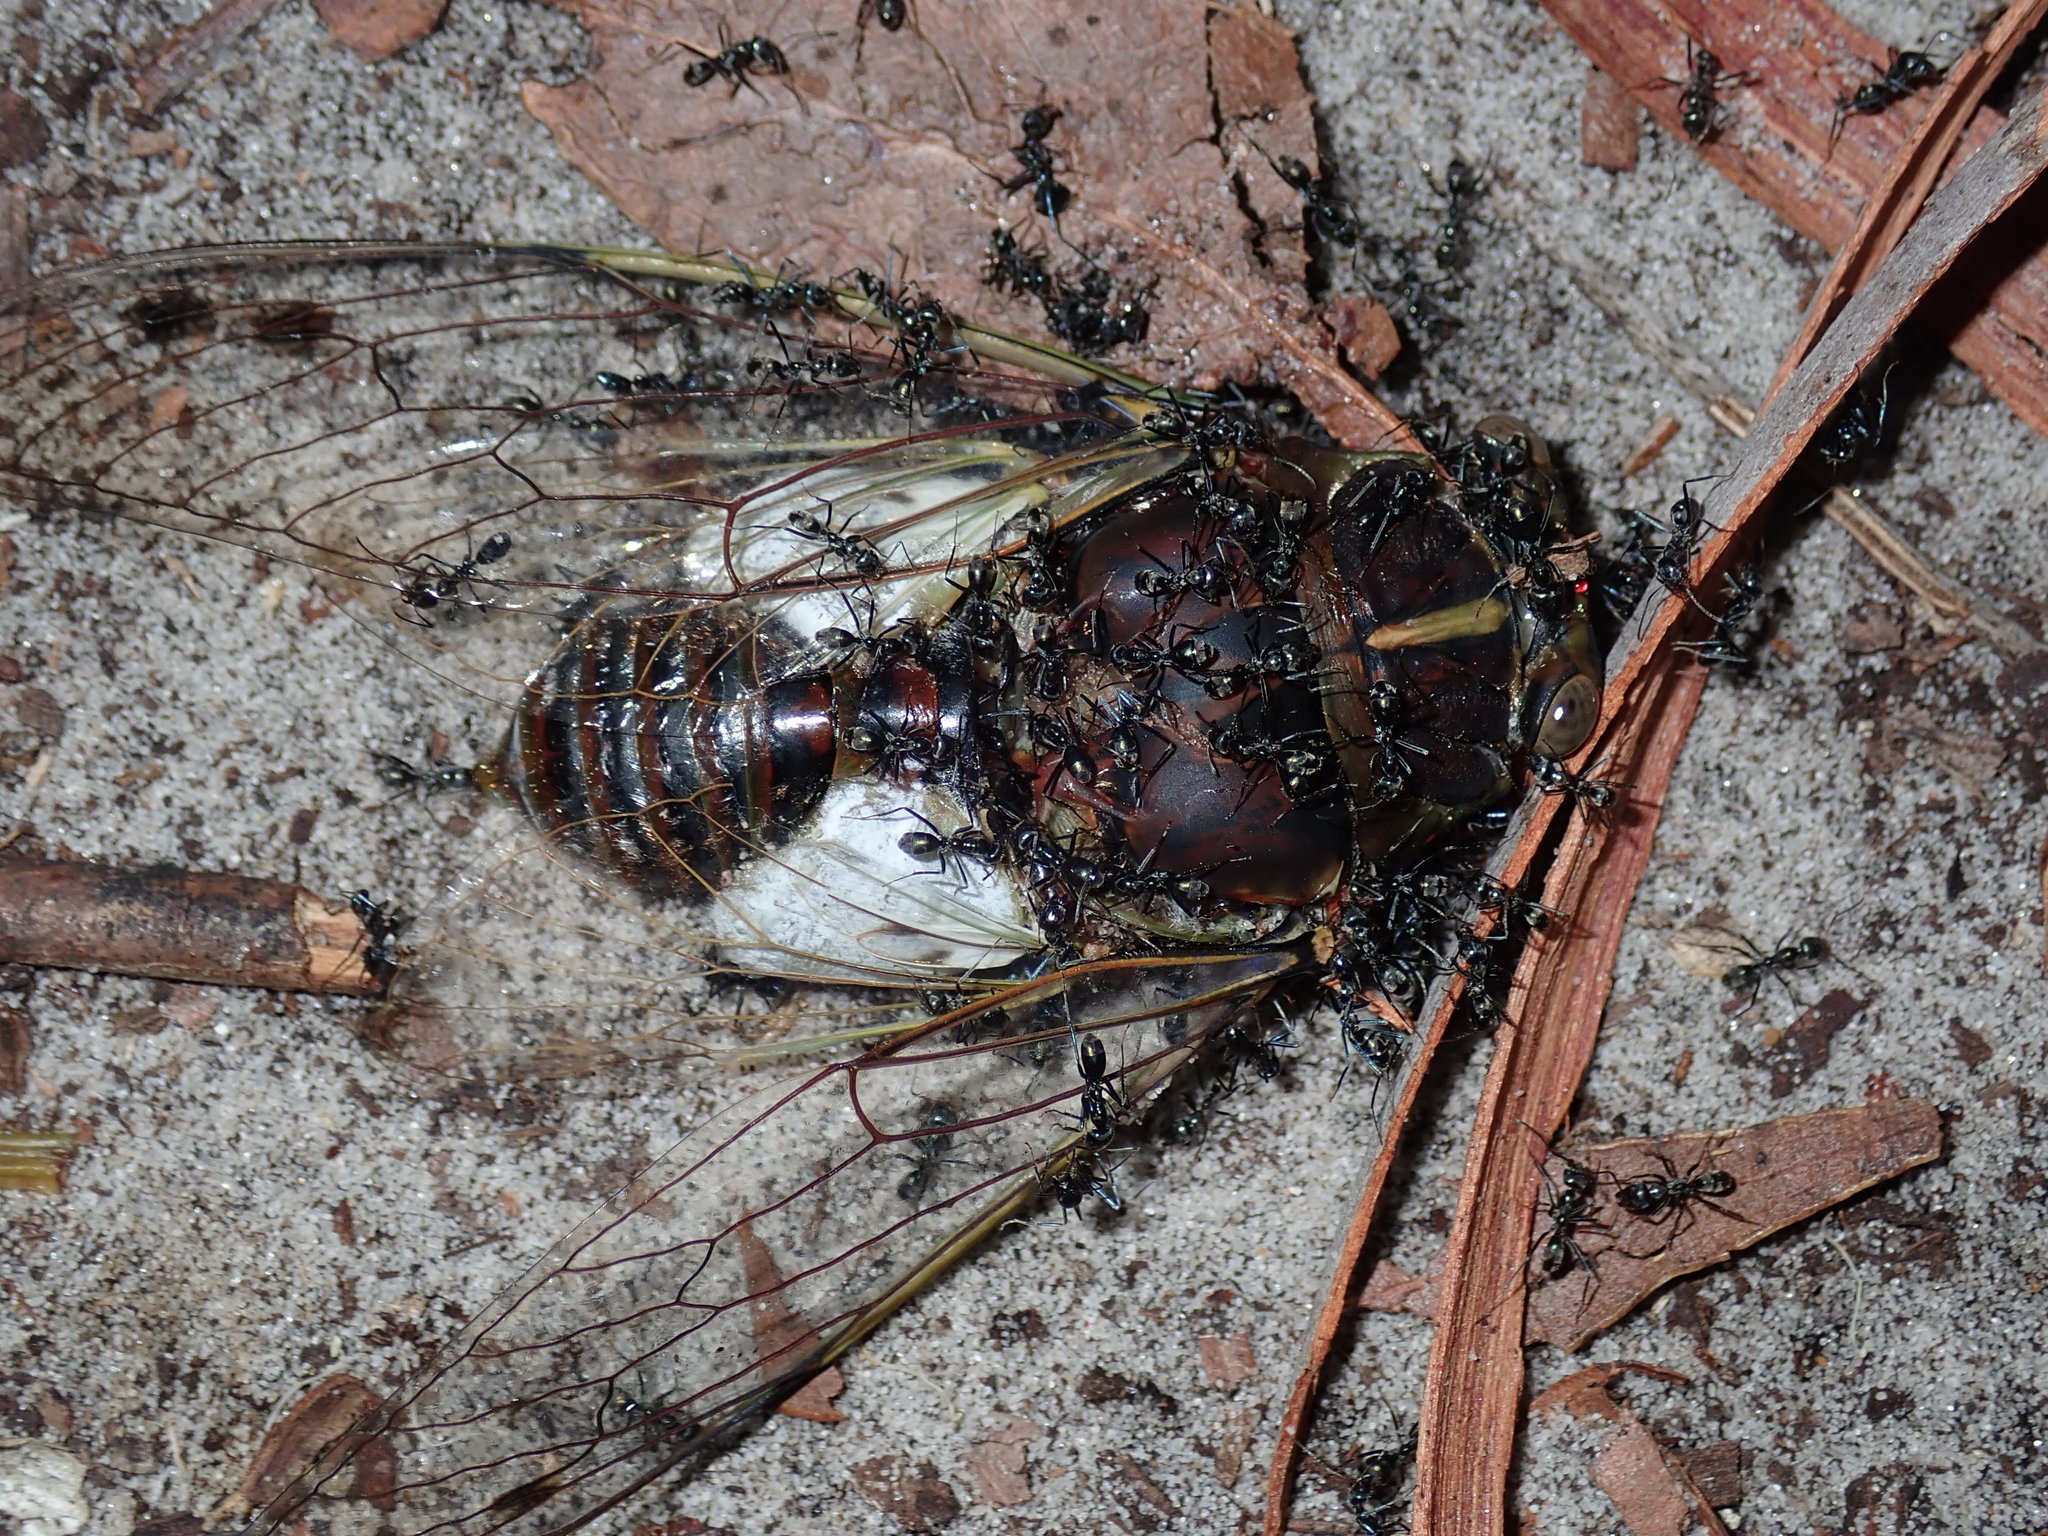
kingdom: Animalia
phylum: Arthropoda
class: Insecta
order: Hemiptera
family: Cicadidae
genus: Arunta
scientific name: Arunta perulata
